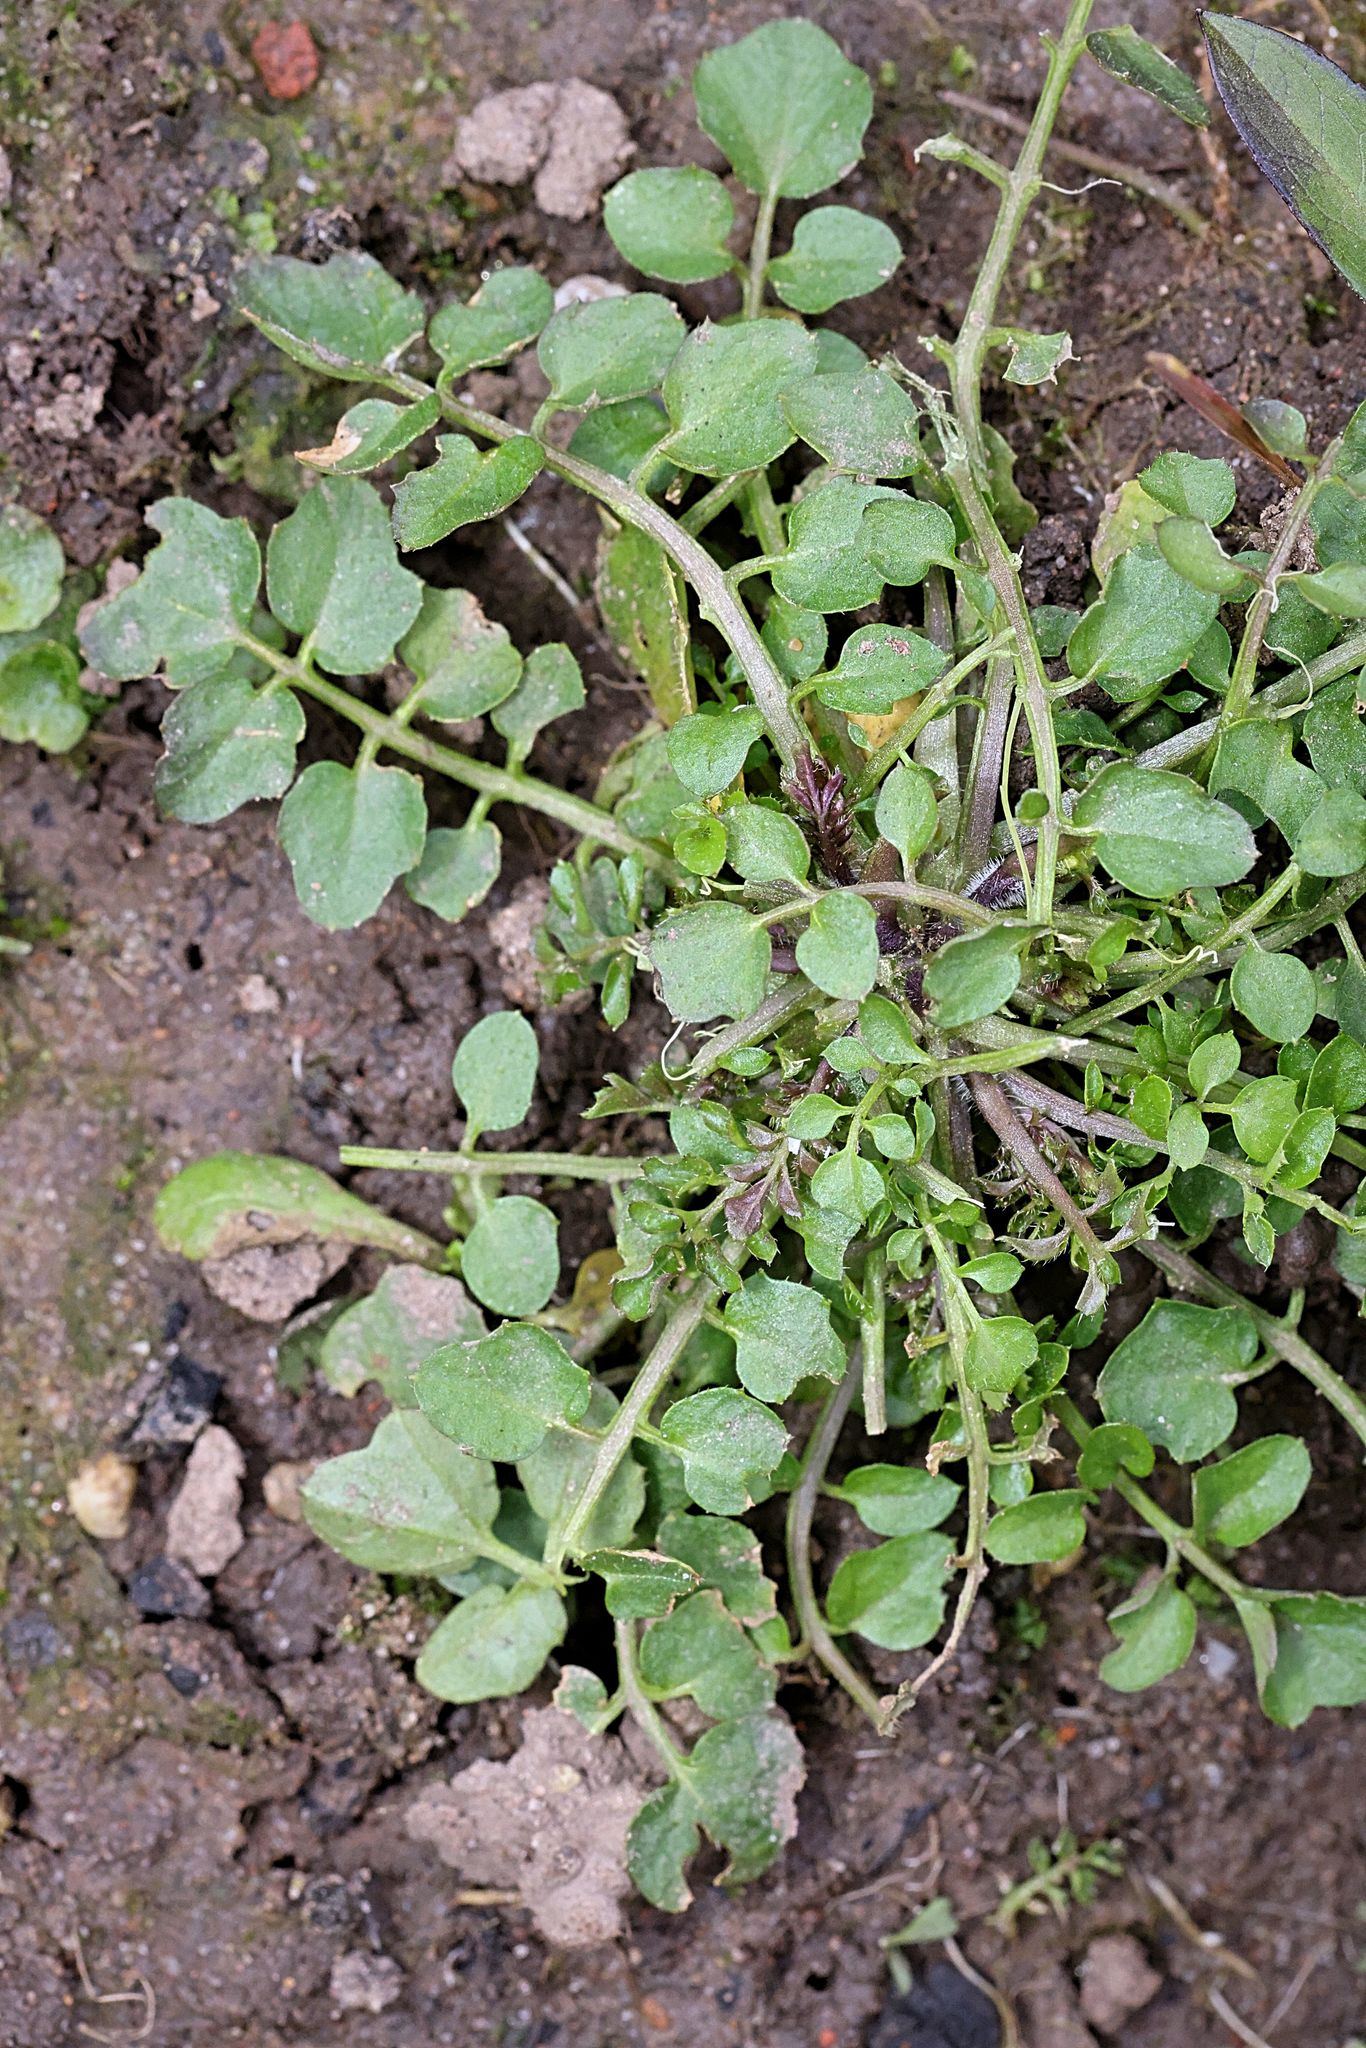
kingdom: Plantae
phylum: Tracheophyta
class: Magnoliopsida
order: Brassicales
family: Brassicaceae
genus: Cardamine
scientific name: Cardamine flexuosa
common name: Woodland bittercress
